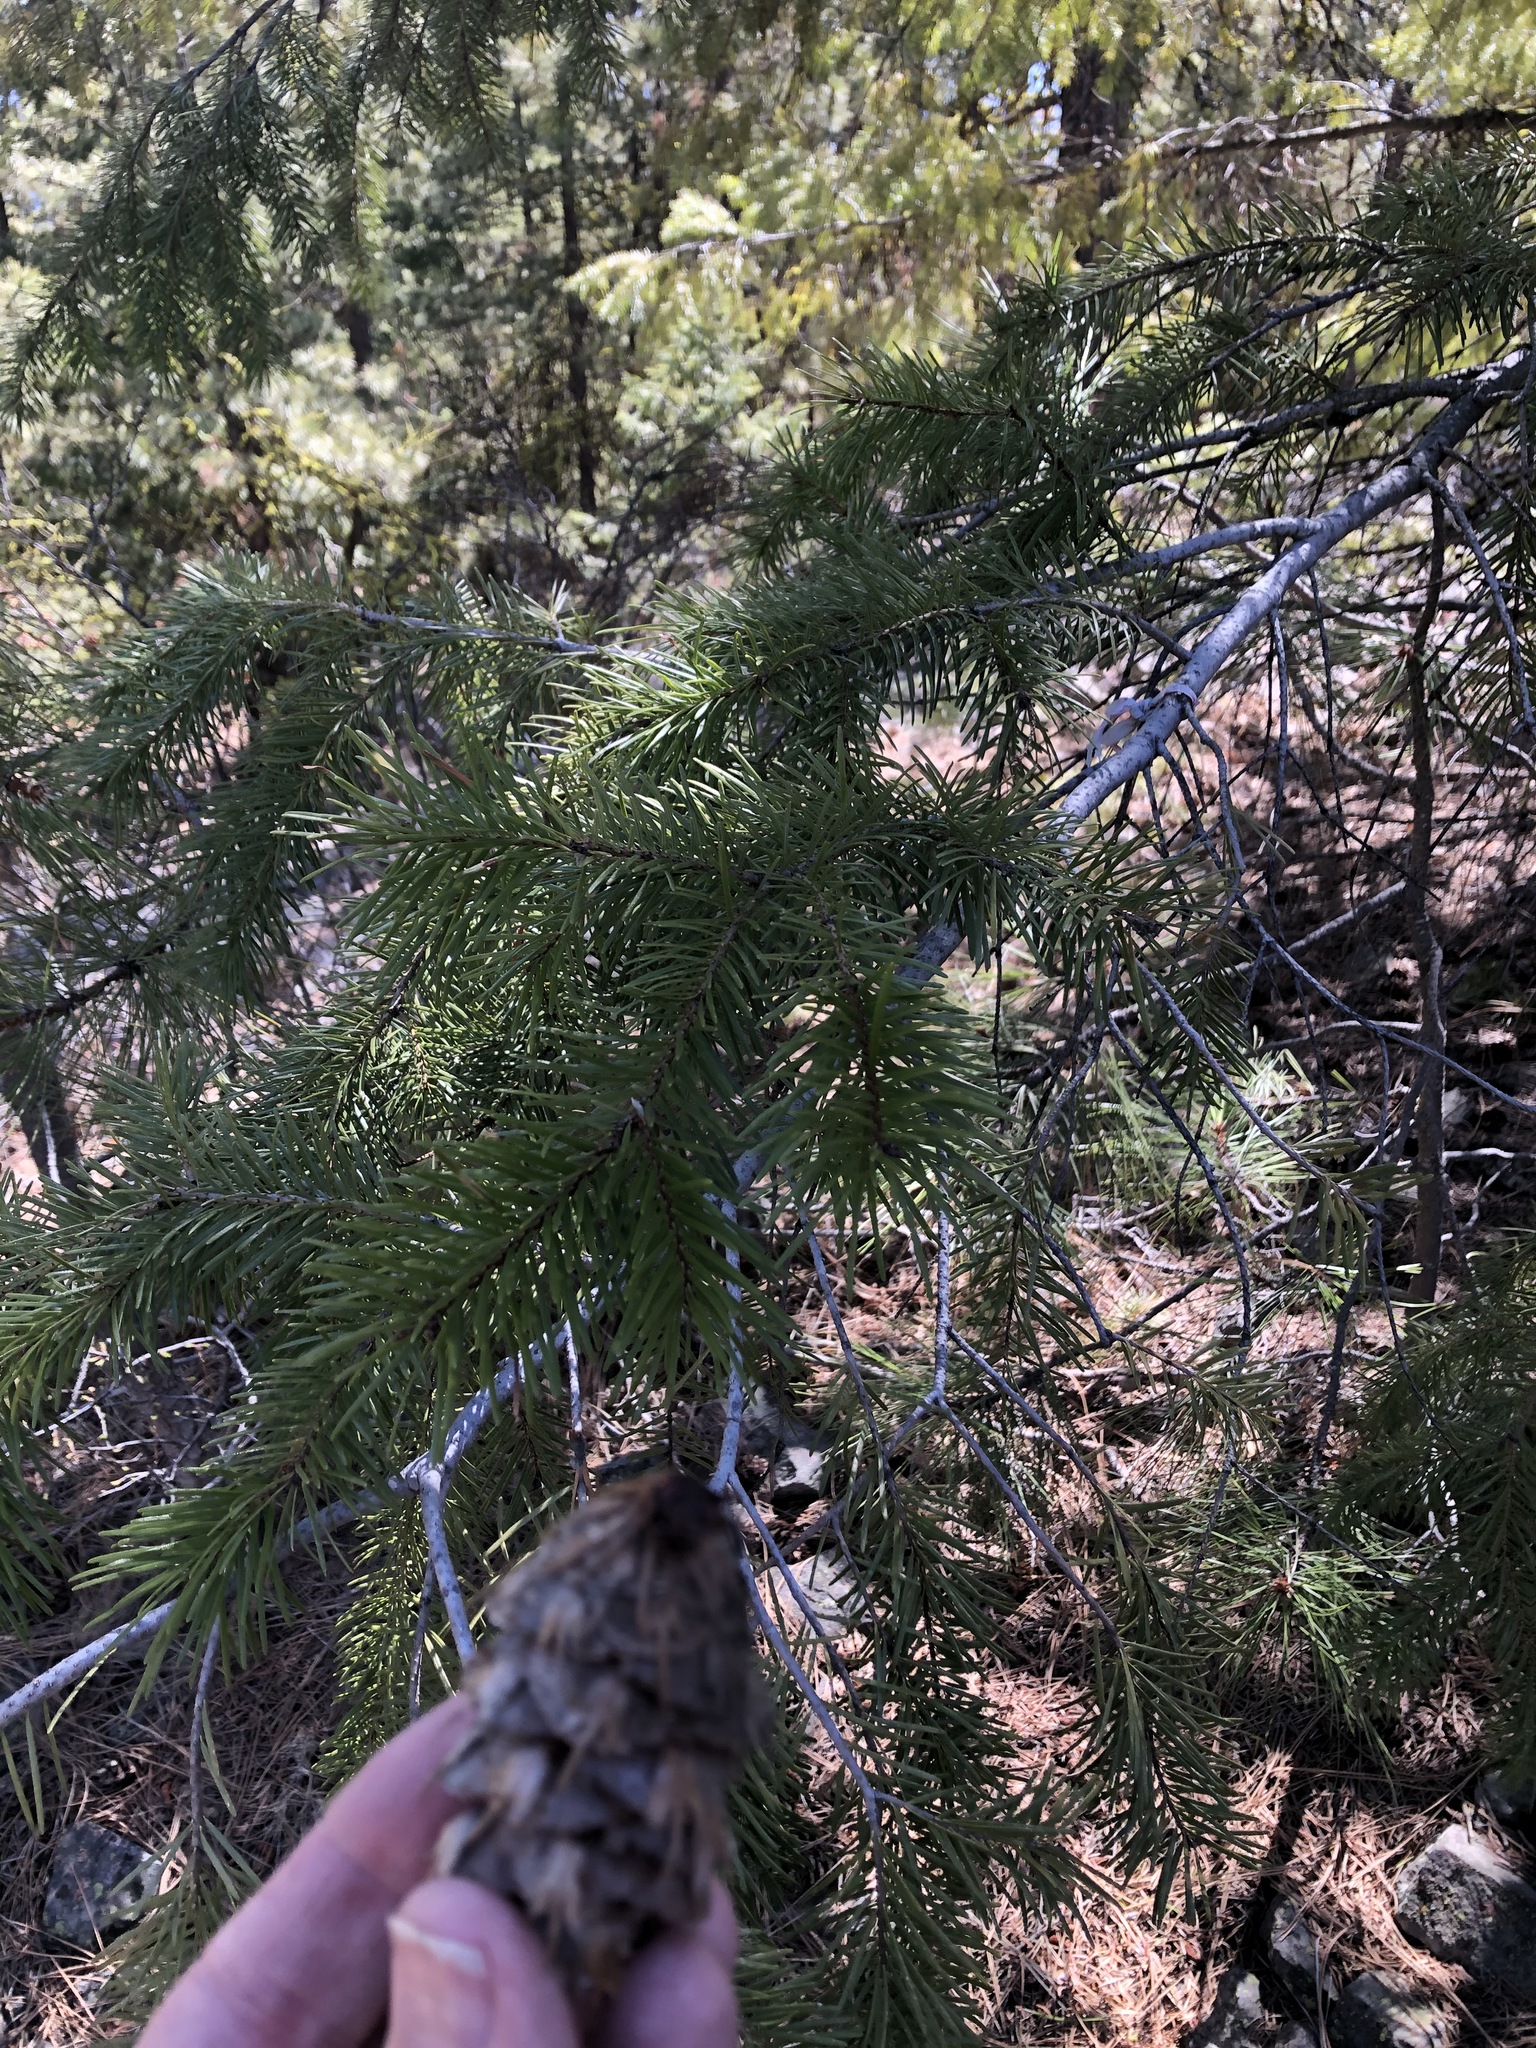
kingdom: Plantae
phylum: Tracheophyta
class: Pinopsida
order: Pinales
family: Pinaceae
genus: Pseudotsuga
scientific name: Pseudotsuga menziesii
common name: Douglas fir
